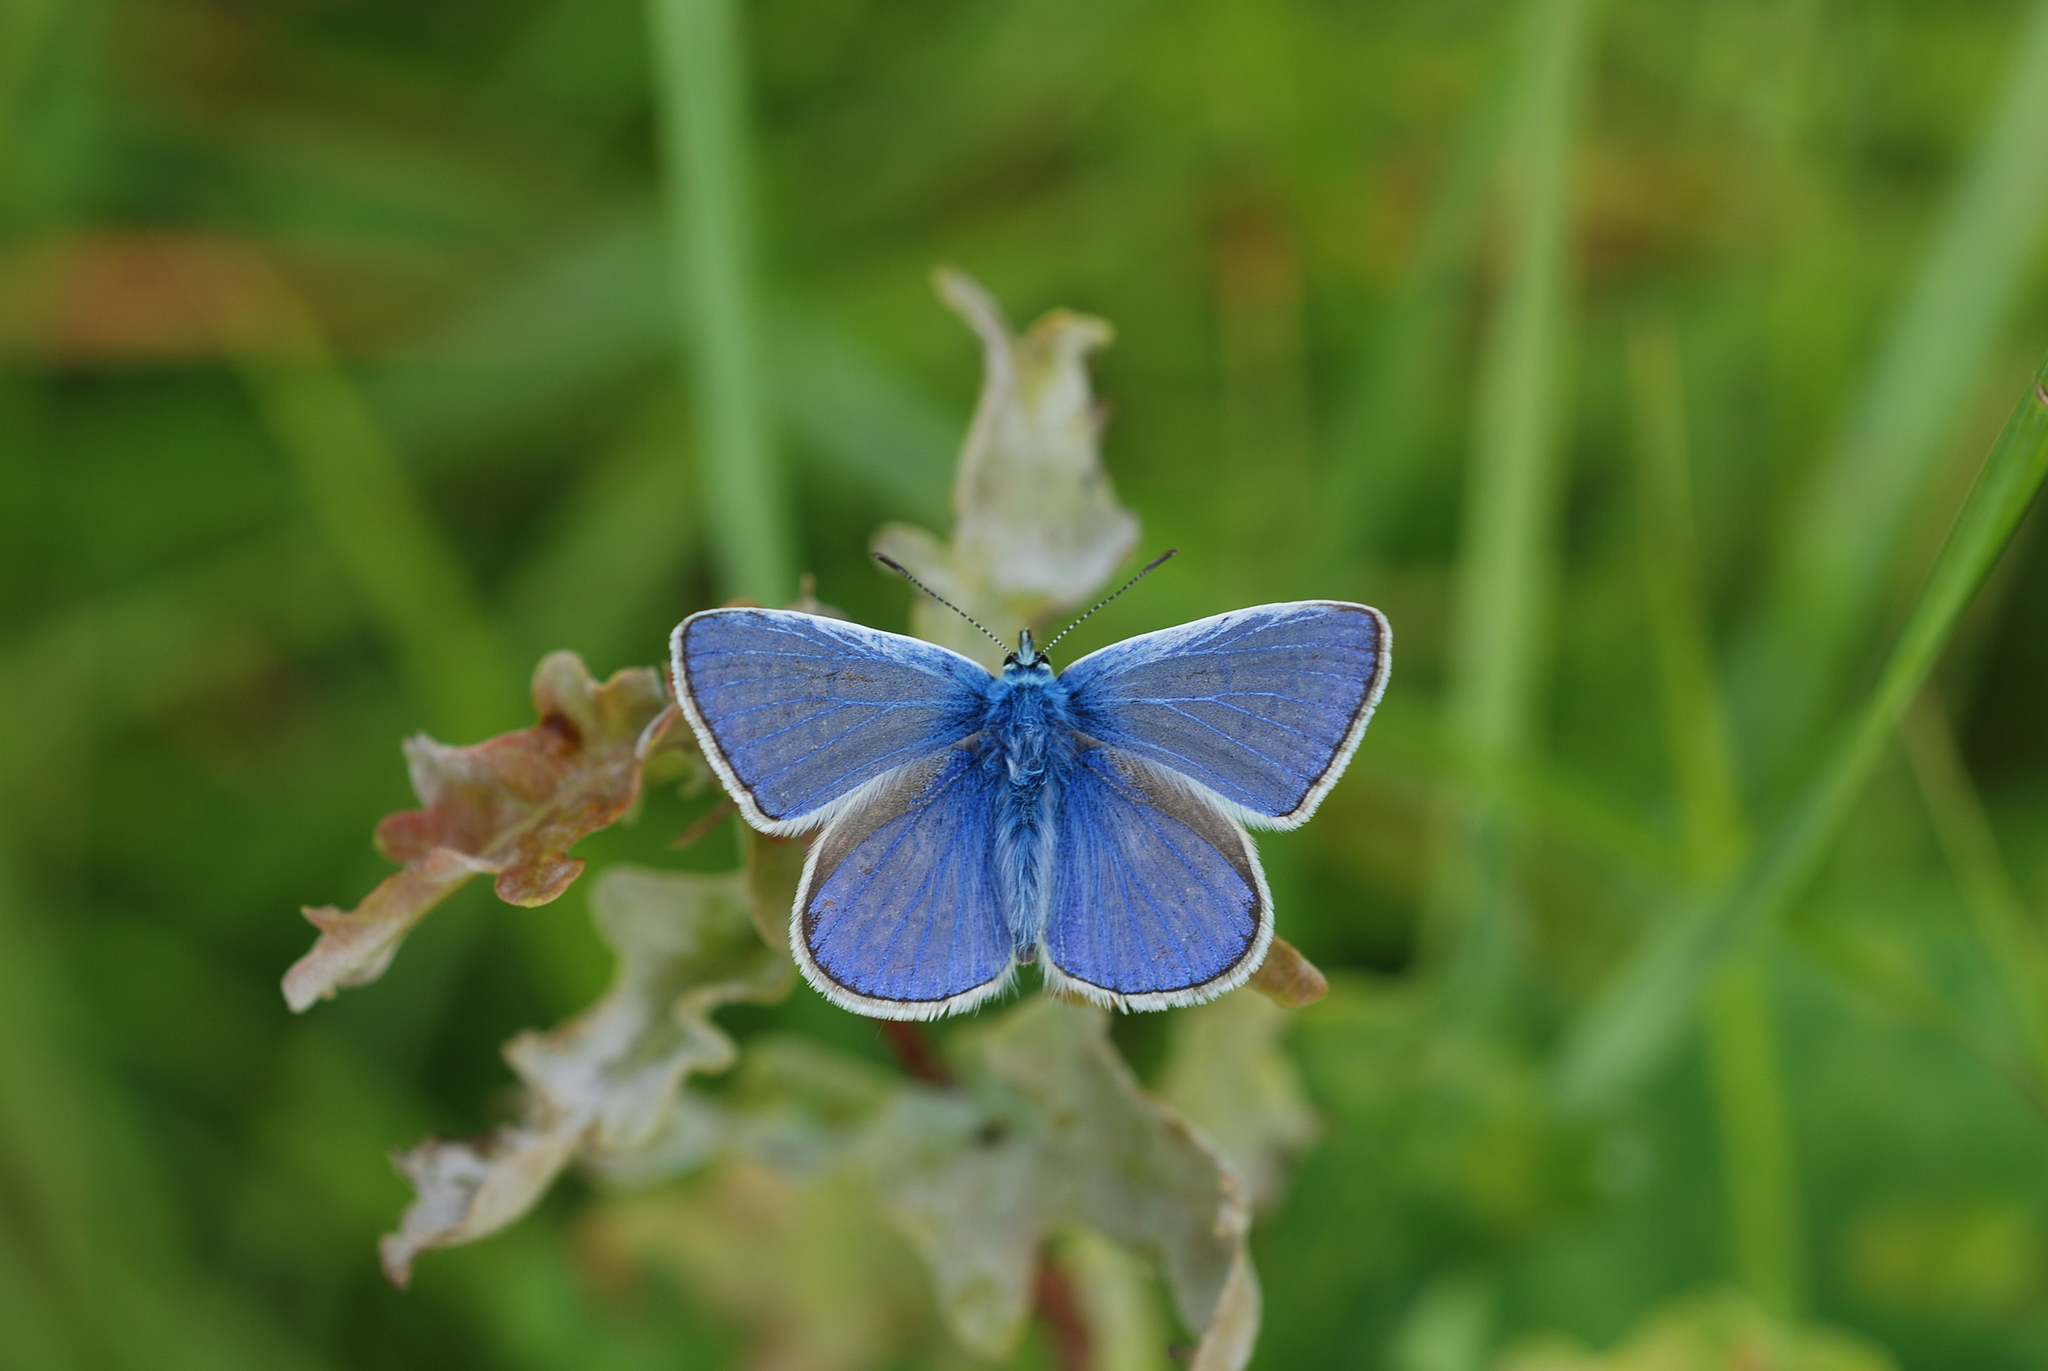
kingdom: Animalia
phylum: Arthropoda
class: Insecta
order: Lepidoptera
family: Lycaenidae
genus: Polyommatus
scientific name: Polyommatus icarus
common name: Common blue
